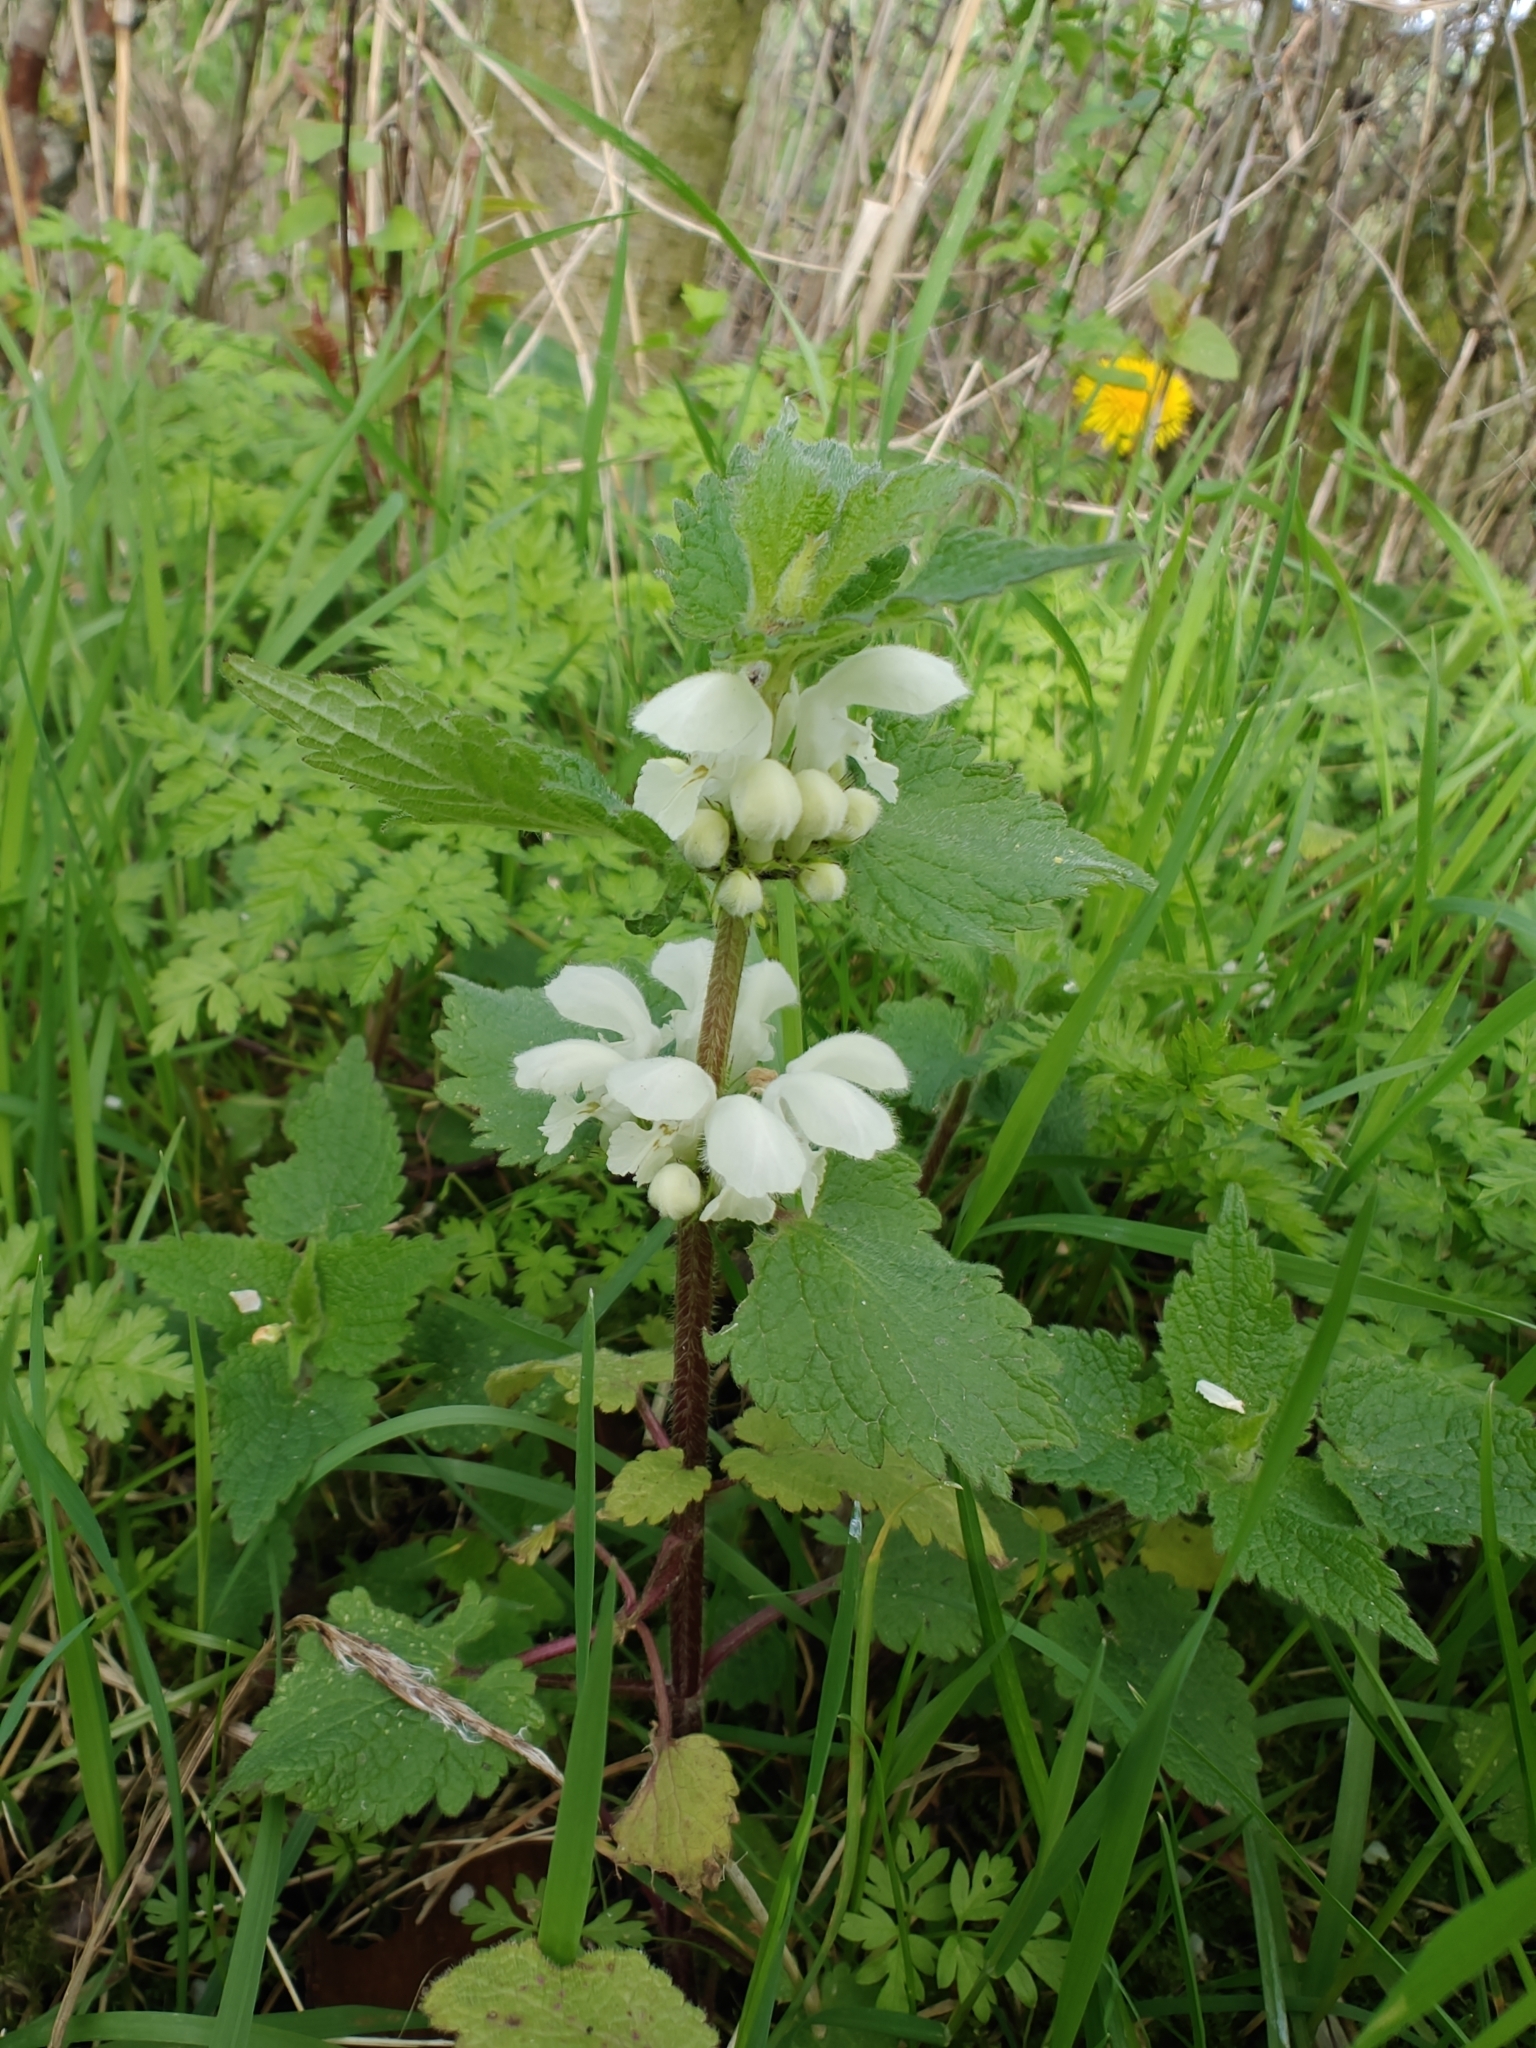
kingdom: Plantae
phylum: Tracheophyta
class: Magnoliopsida
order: Lamiales
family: Lamiaceae
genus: Lamium
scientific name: Lamium album
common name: White dead-nettle
